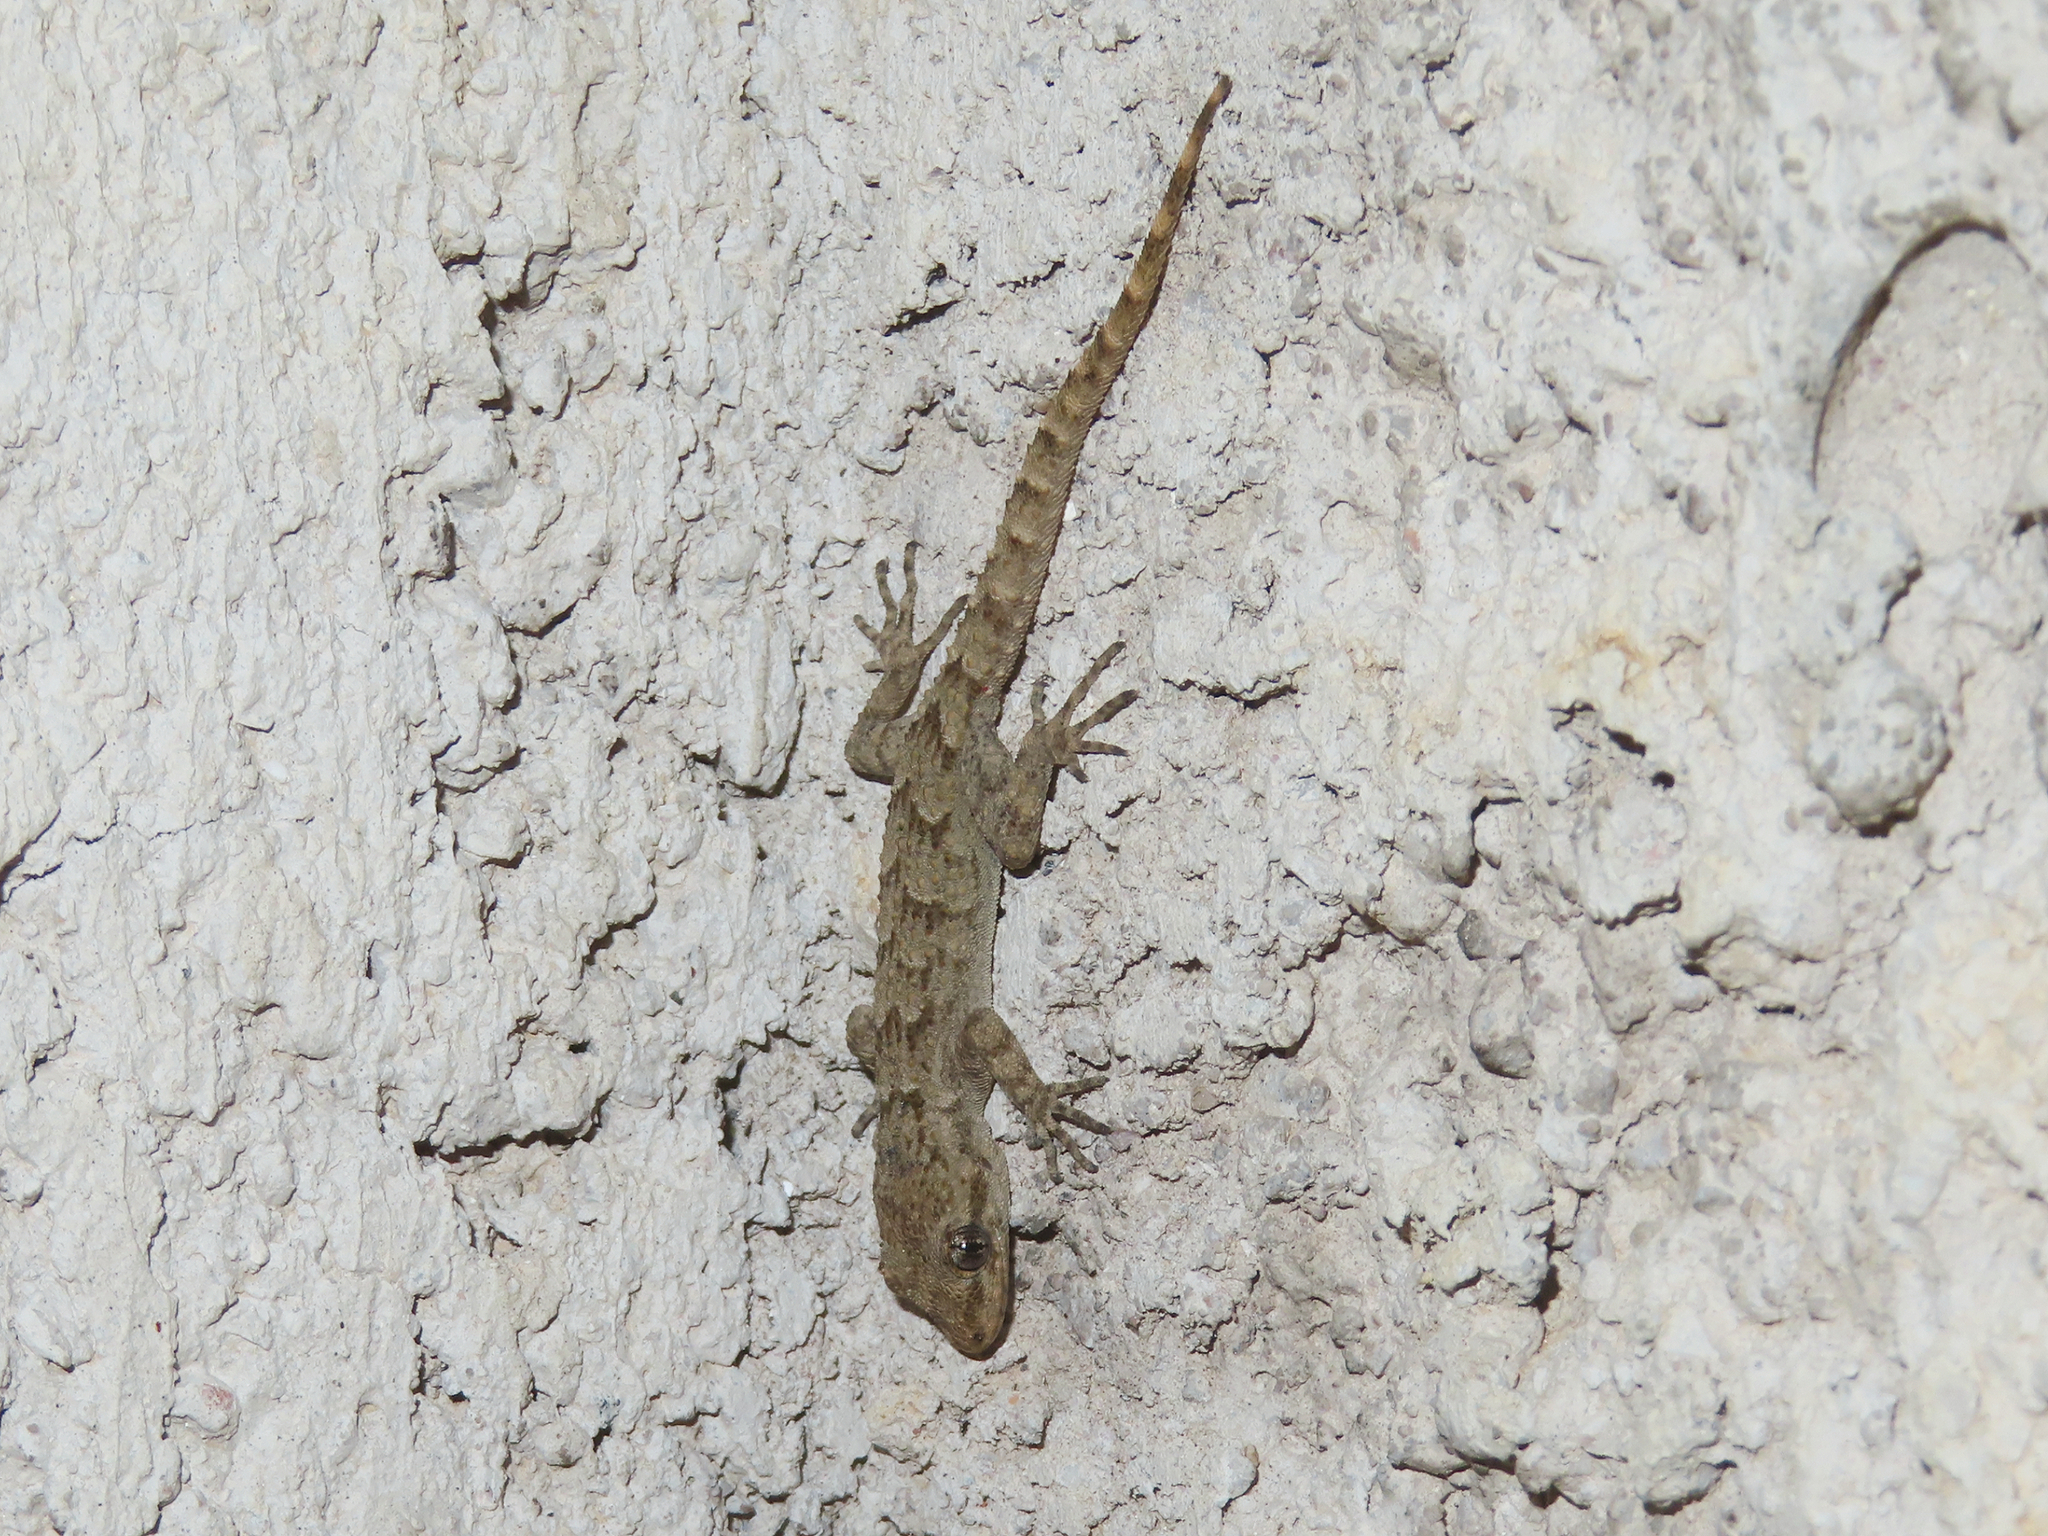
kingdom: Animalia
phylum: Chordata
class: Squamata
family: Gekkonidae
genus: Mediodactylus
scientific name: Mediodactylus kotschyi
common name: Kotschy's gecko
